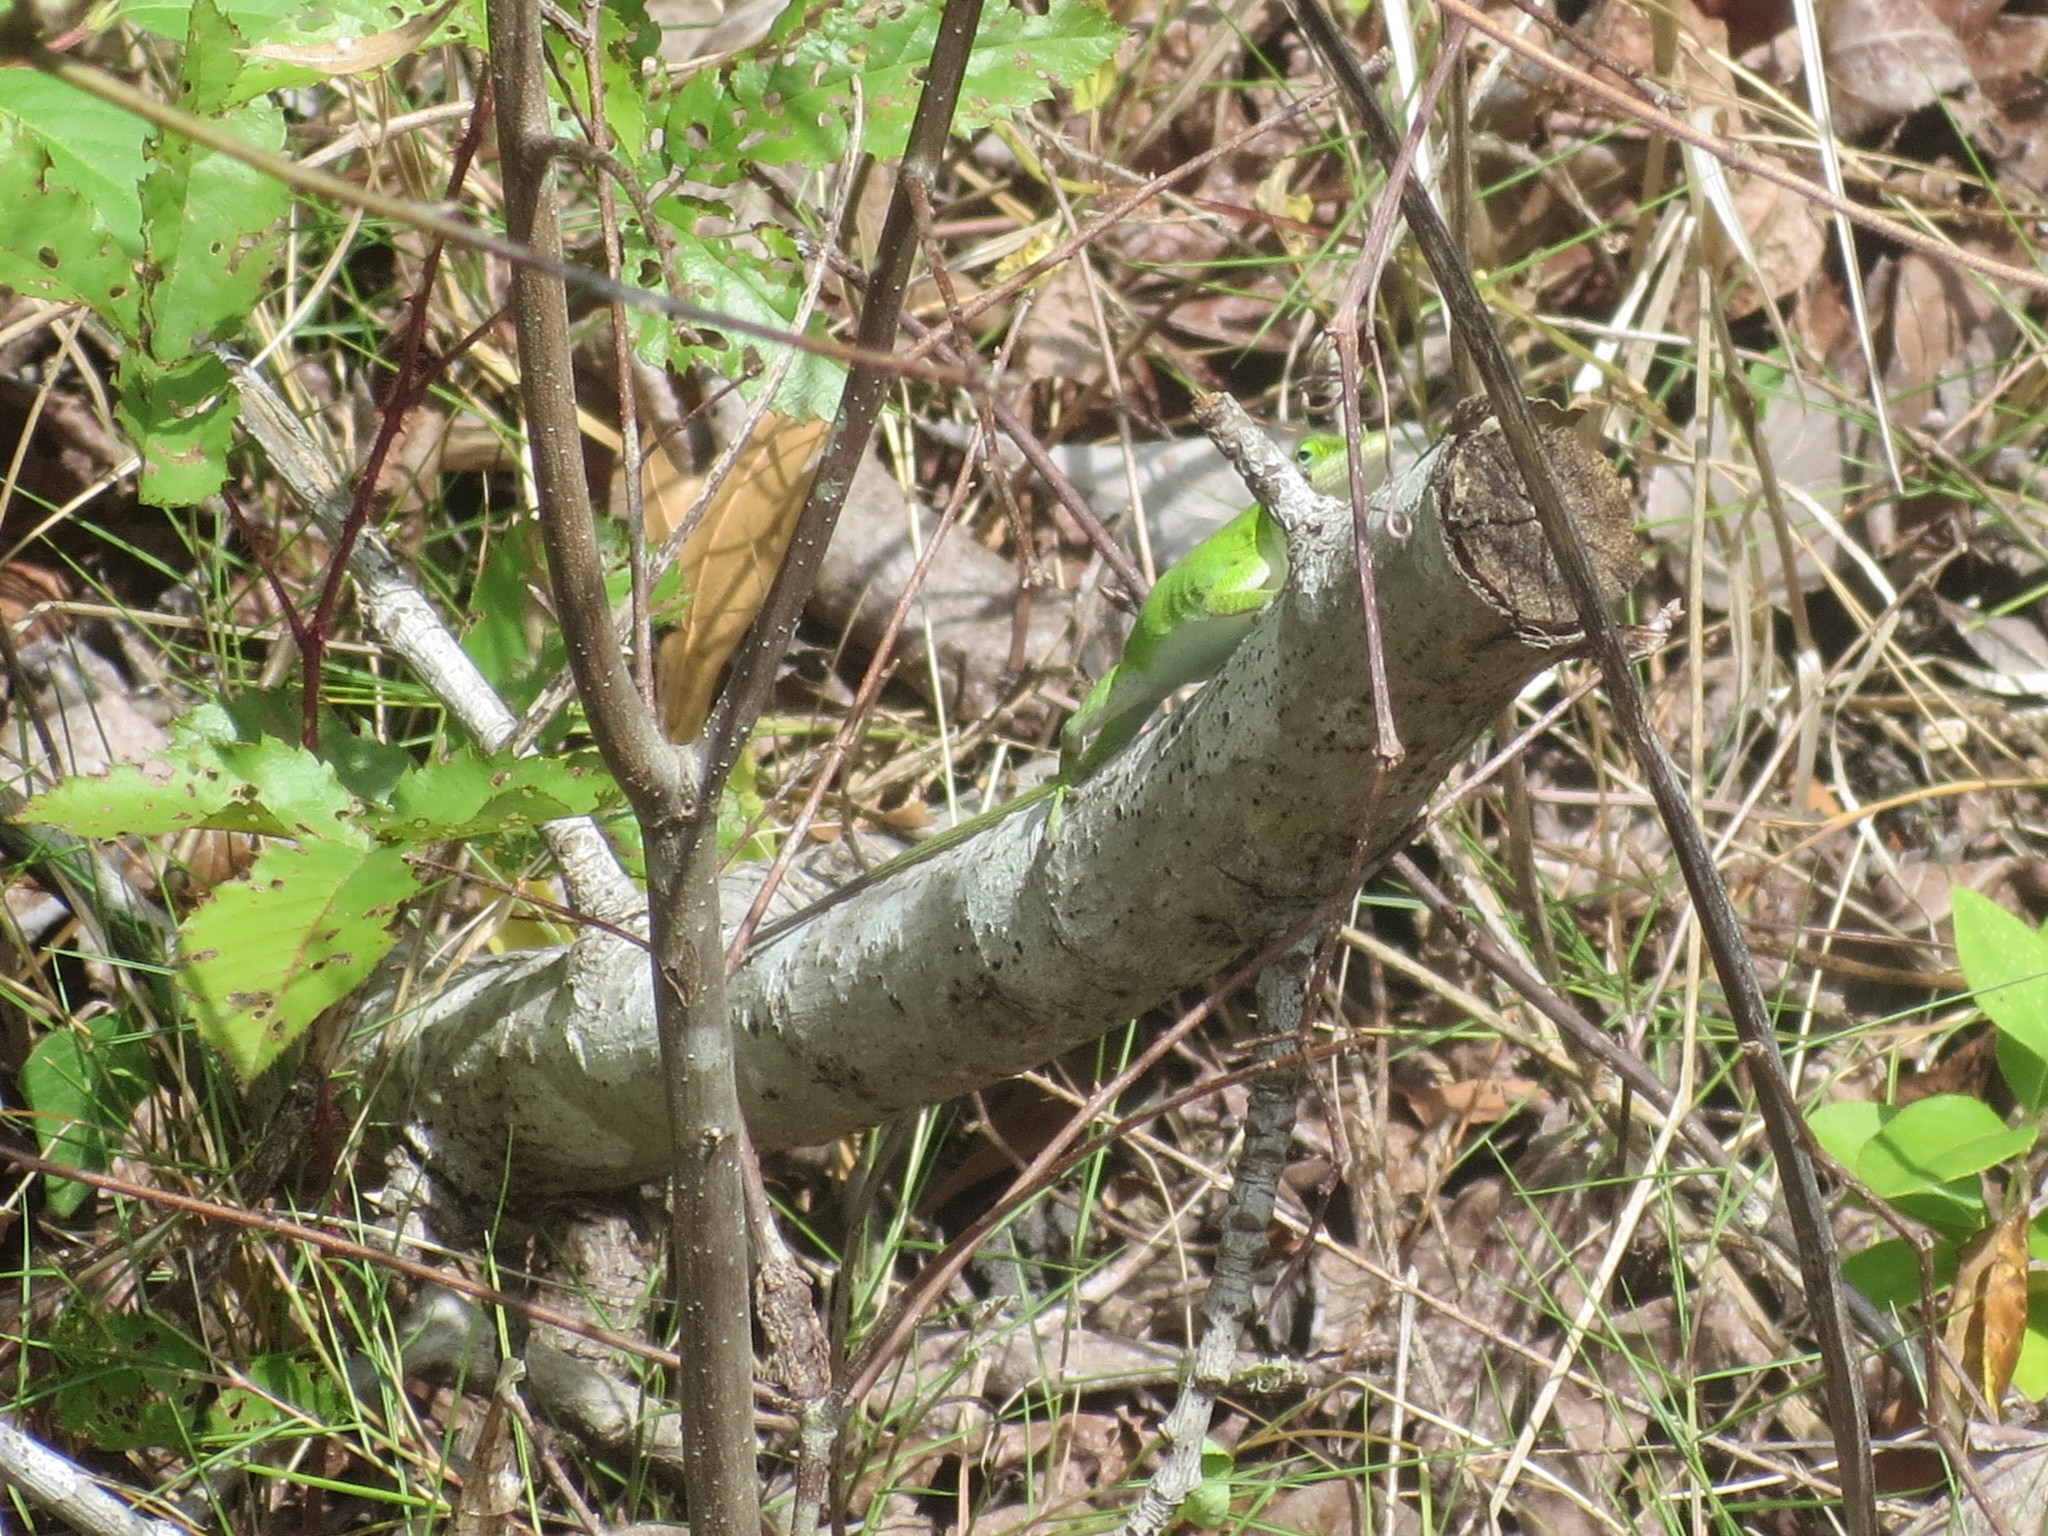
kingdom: Animalia
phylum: Chordata
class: Squamata
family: Dactyloidae
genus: Anolis
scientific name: Anolis carolinensis
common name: Green anole
